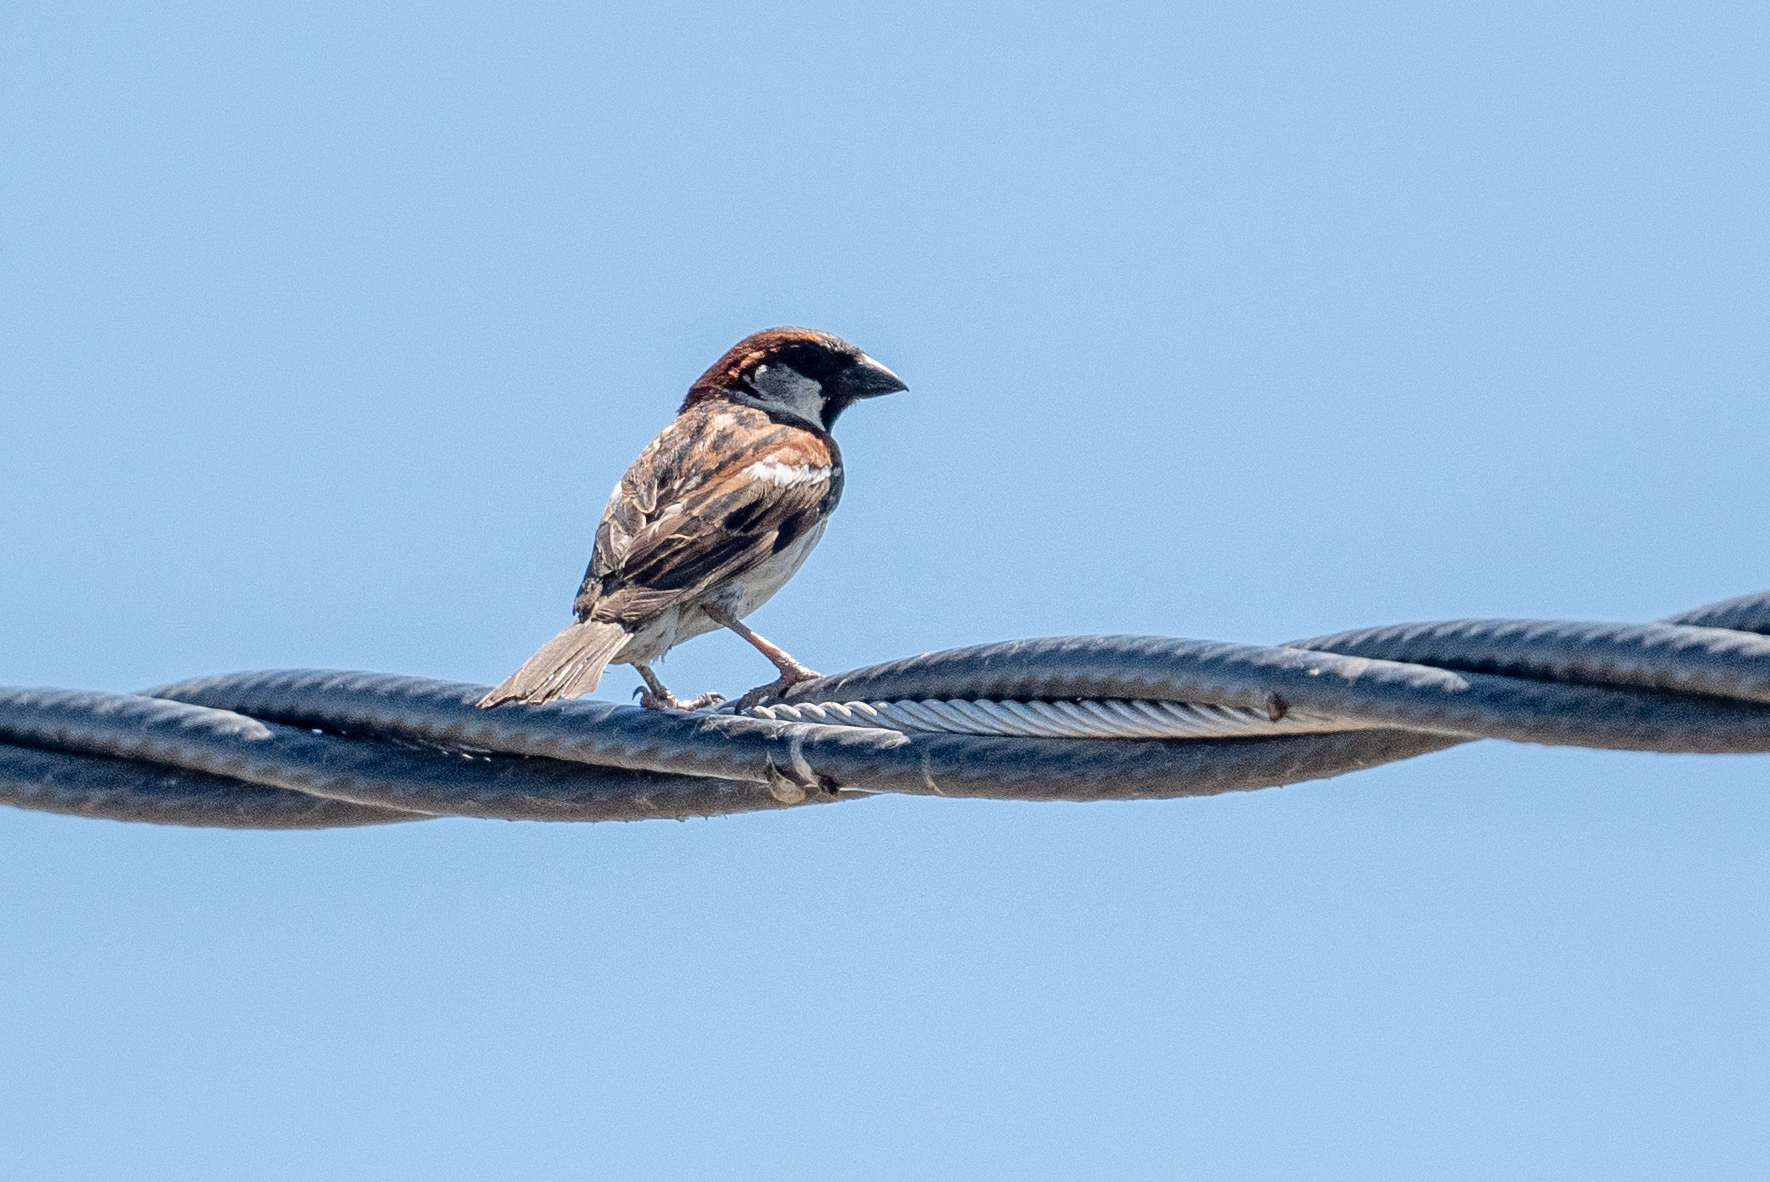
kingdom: Animalia
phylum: Chordata
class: Aves
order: Passeriformes
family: Passeridae
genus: Passer
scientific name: Passer domesticus
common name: House sparrow
